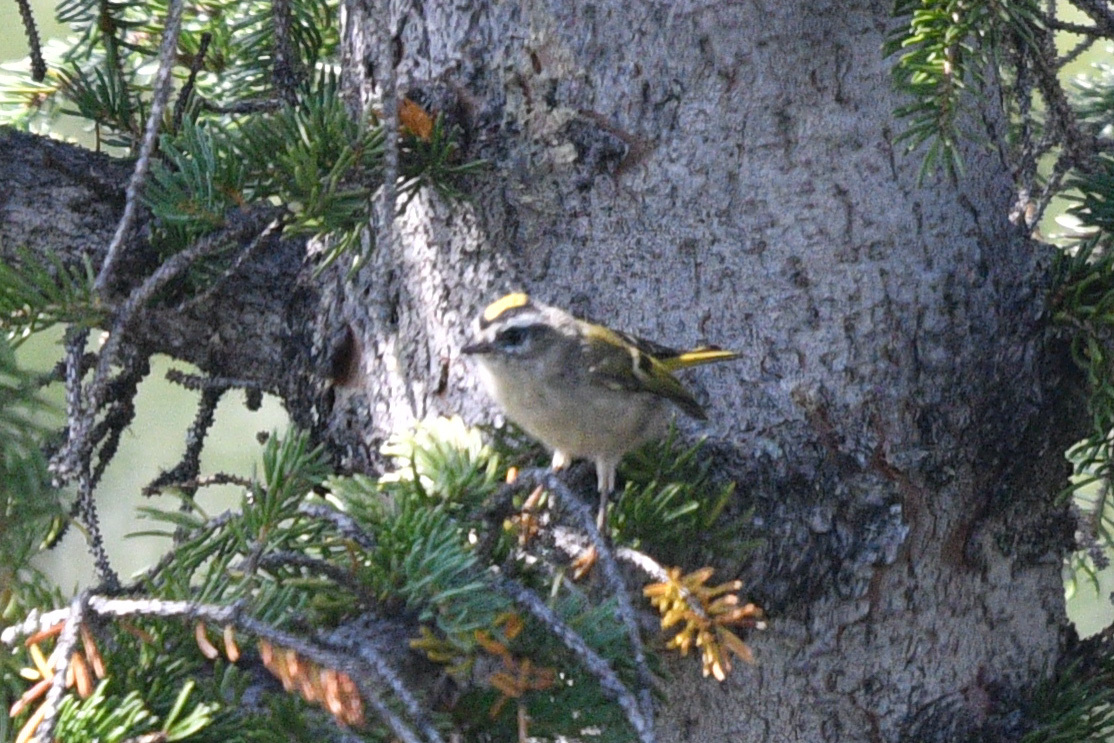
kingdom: Animalia
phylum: Chordata
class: Aves
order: Passeriformes
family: Regulidae
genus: Regulus
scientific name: Regulus satrapa
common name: Golden-crowned kinglet
